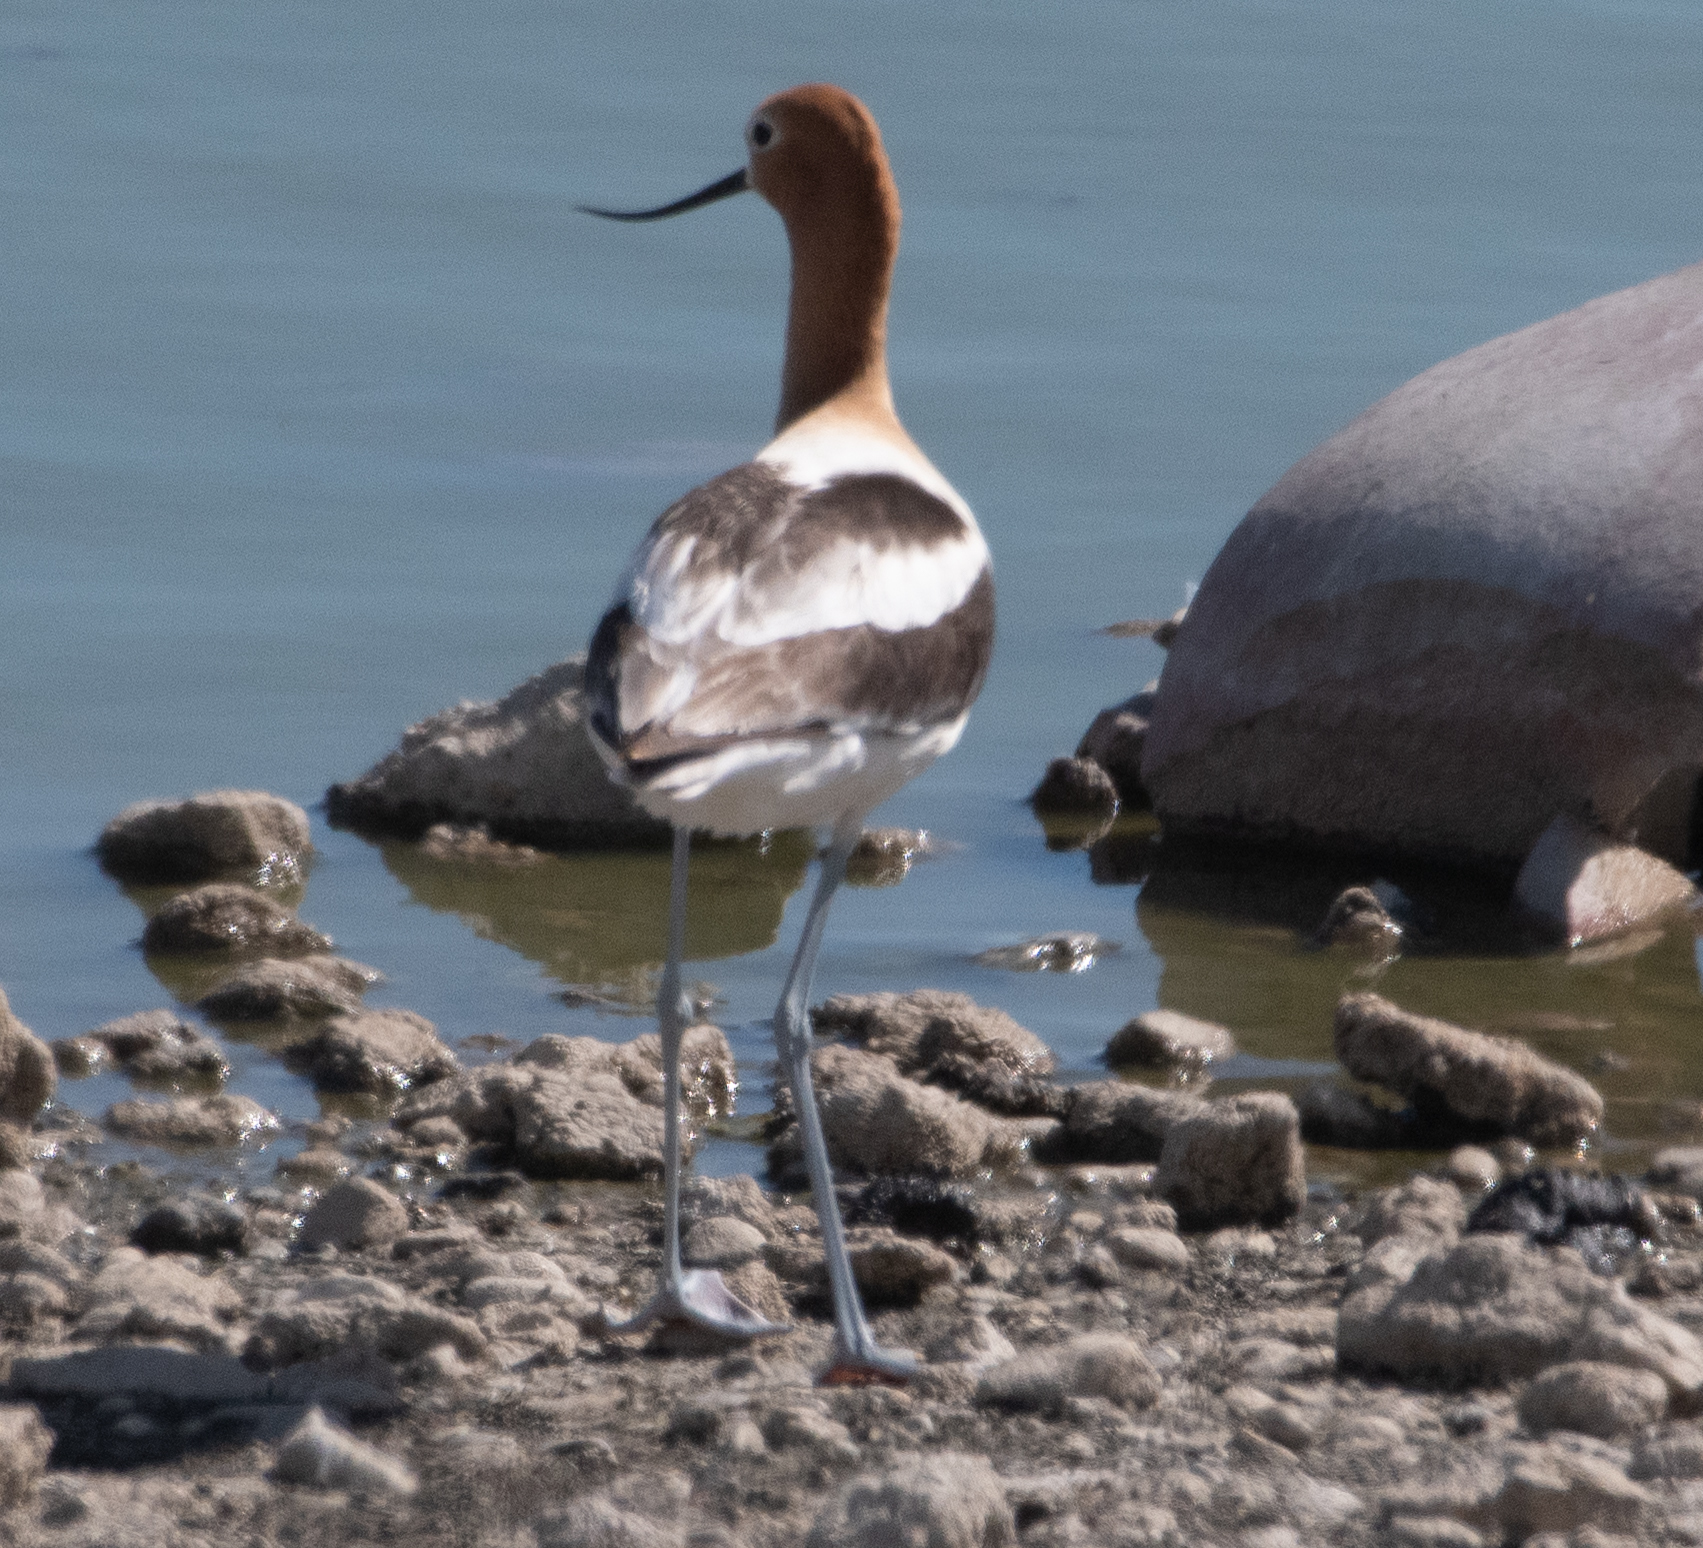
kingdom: Animalia
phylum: Chordata
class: Aves
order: Charadriiformes
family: Recurvirostridae
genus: Recurvirostra
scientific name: Recurvirostra americana
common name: American avocet
